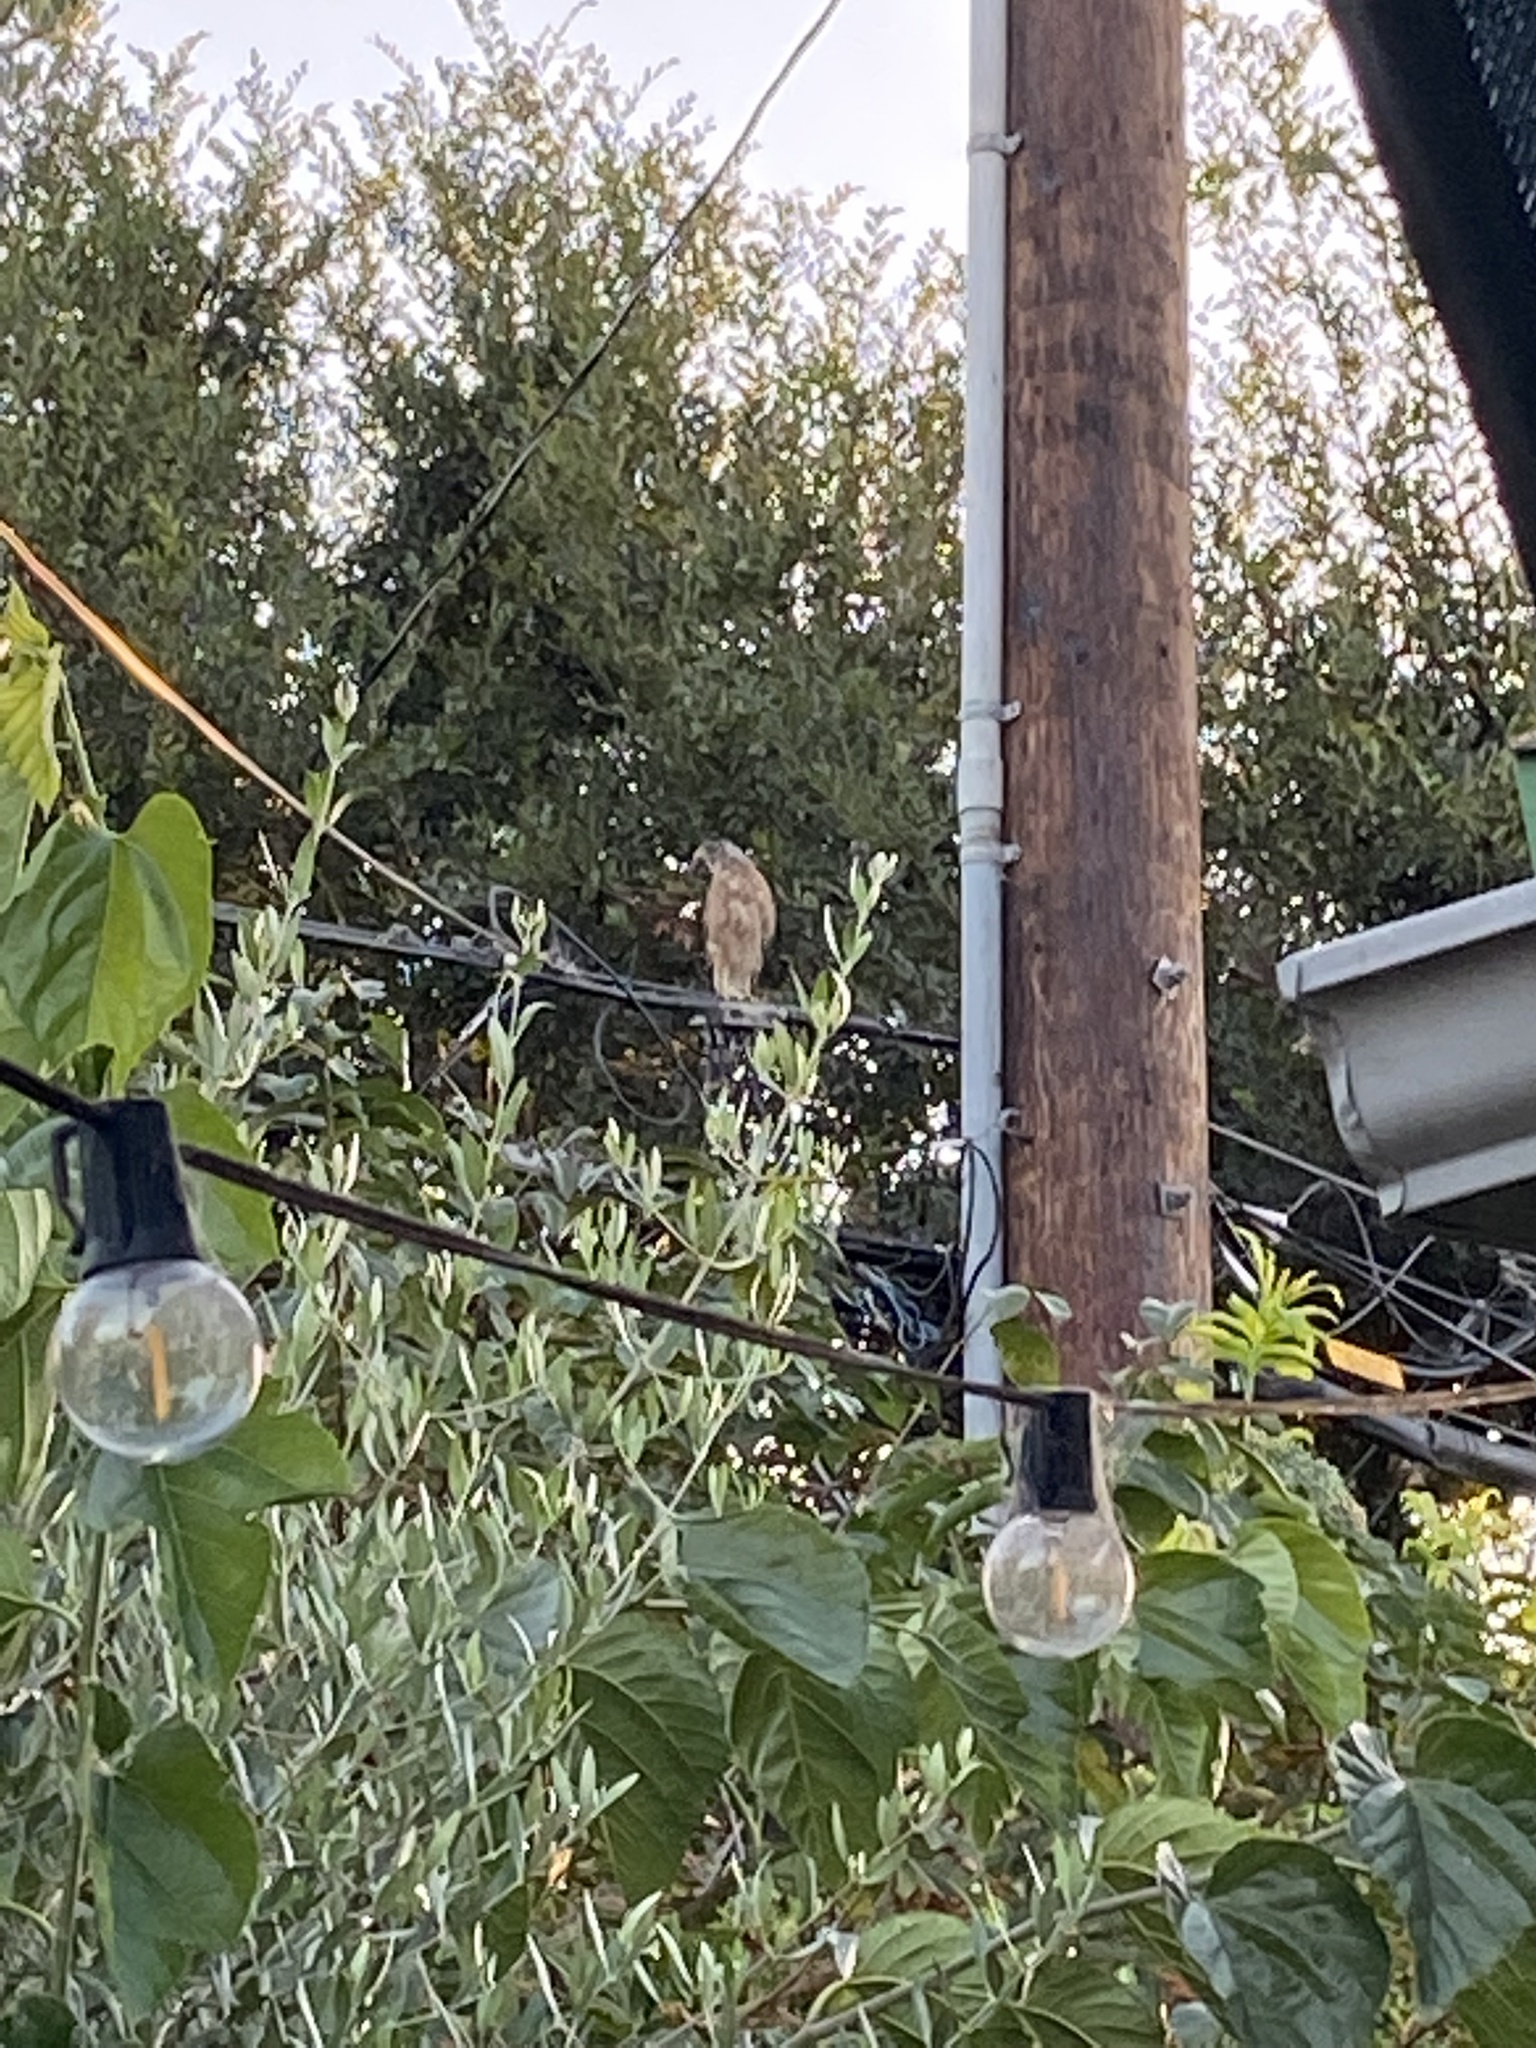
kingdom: Animalia
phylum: Chordata
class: Aves
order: Accipitriformes
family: Accipitridae
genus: Accipiter
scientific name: Accipiter cooperii
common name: Cooper's hawk
